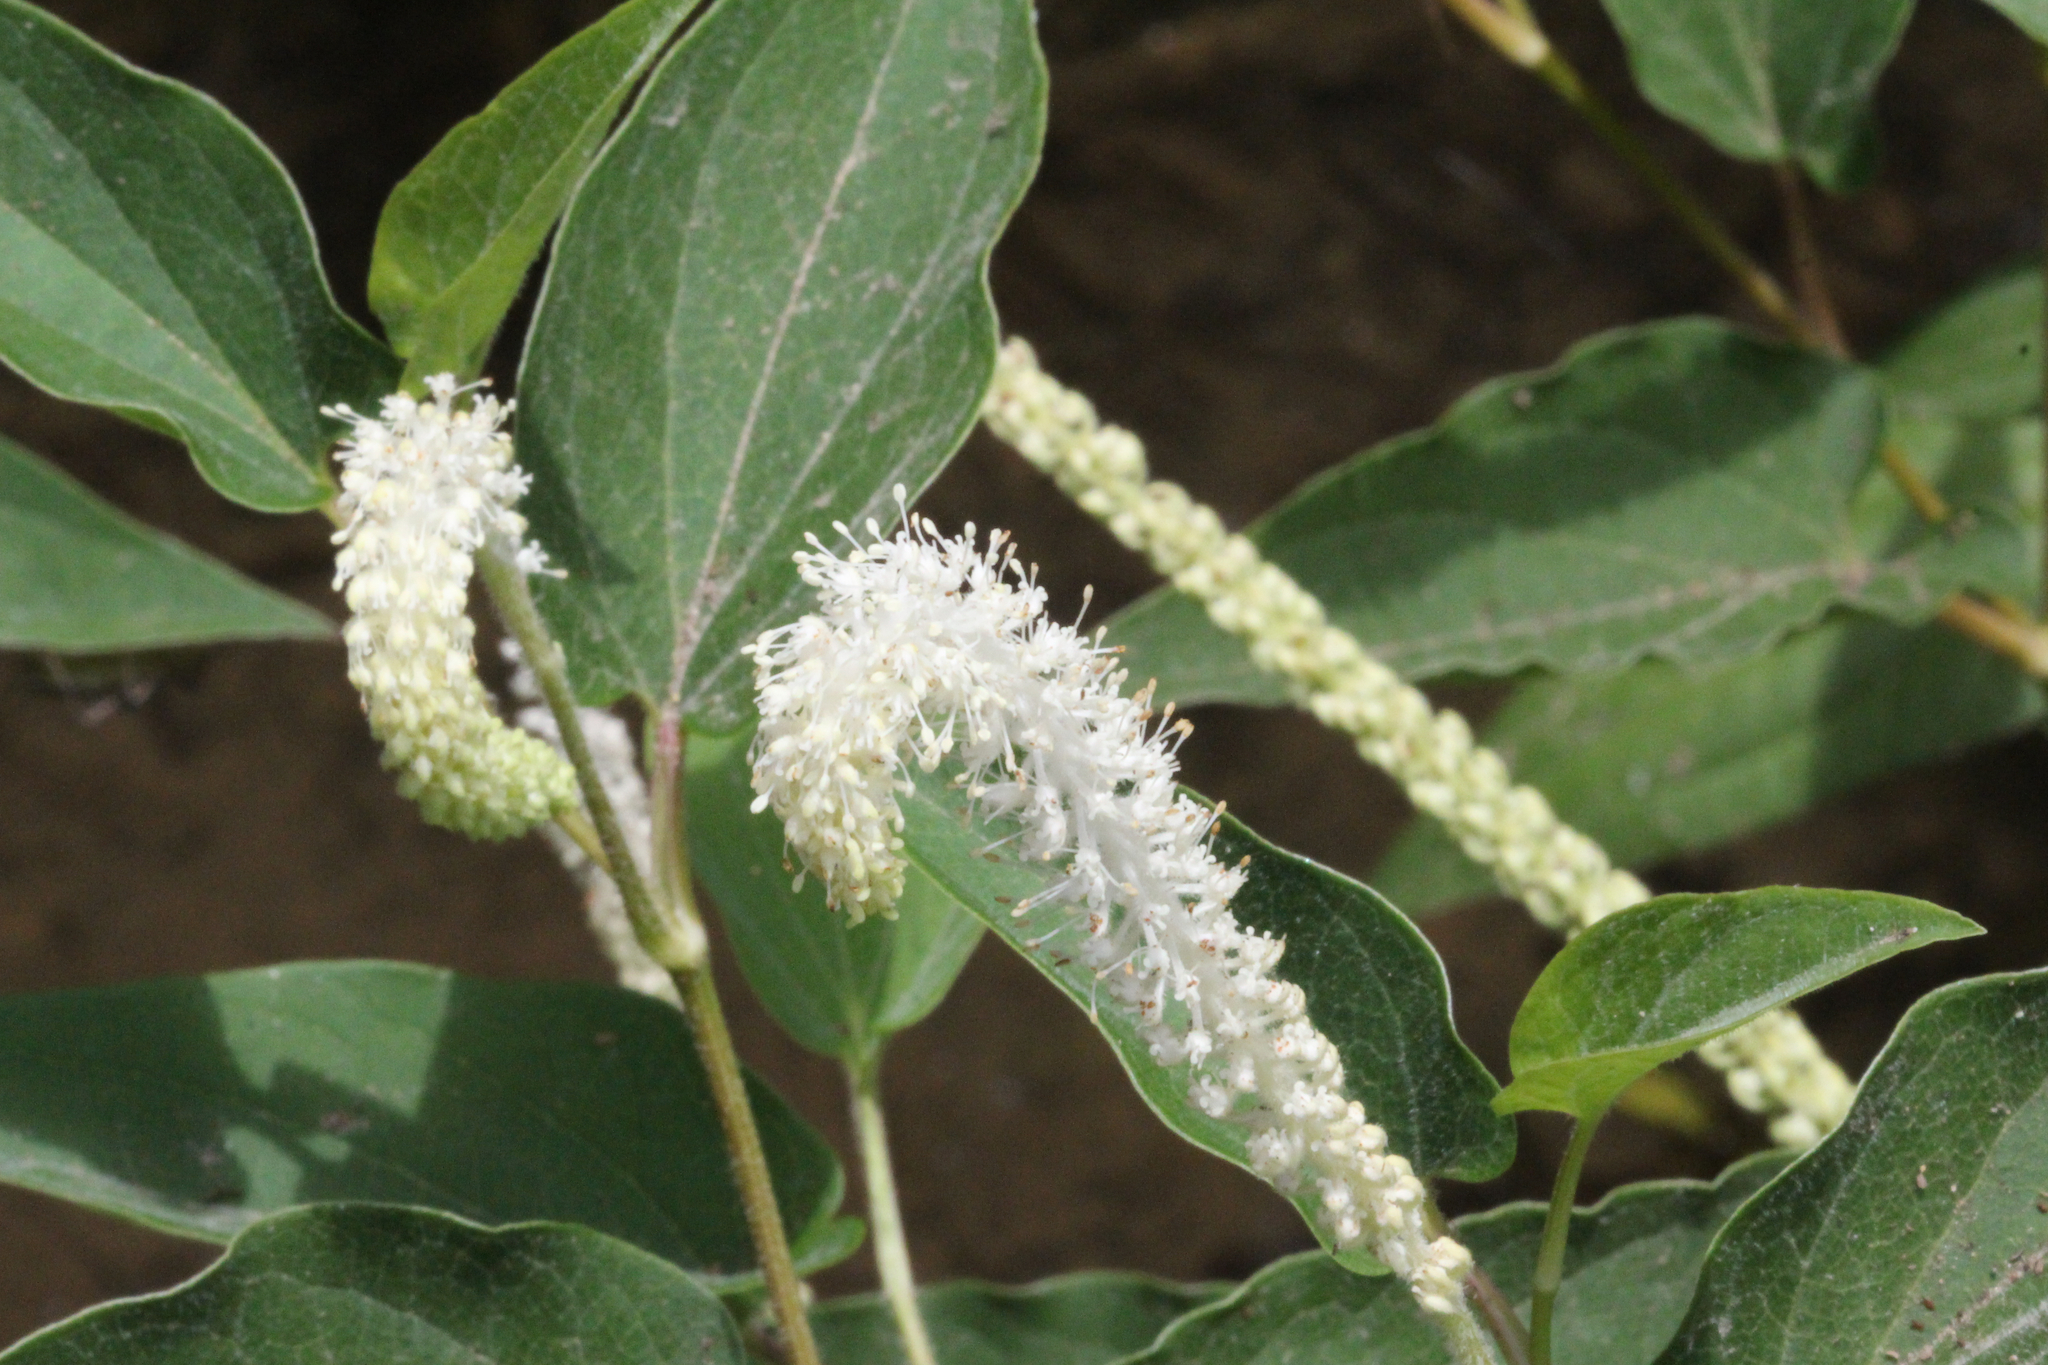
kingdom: Plantae
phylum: Tracheophyta
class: Magnoliopsida
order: Piperales
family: Saururaceae
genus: Saururus
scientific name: Saururus cernuus
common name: Lizard's-tail
